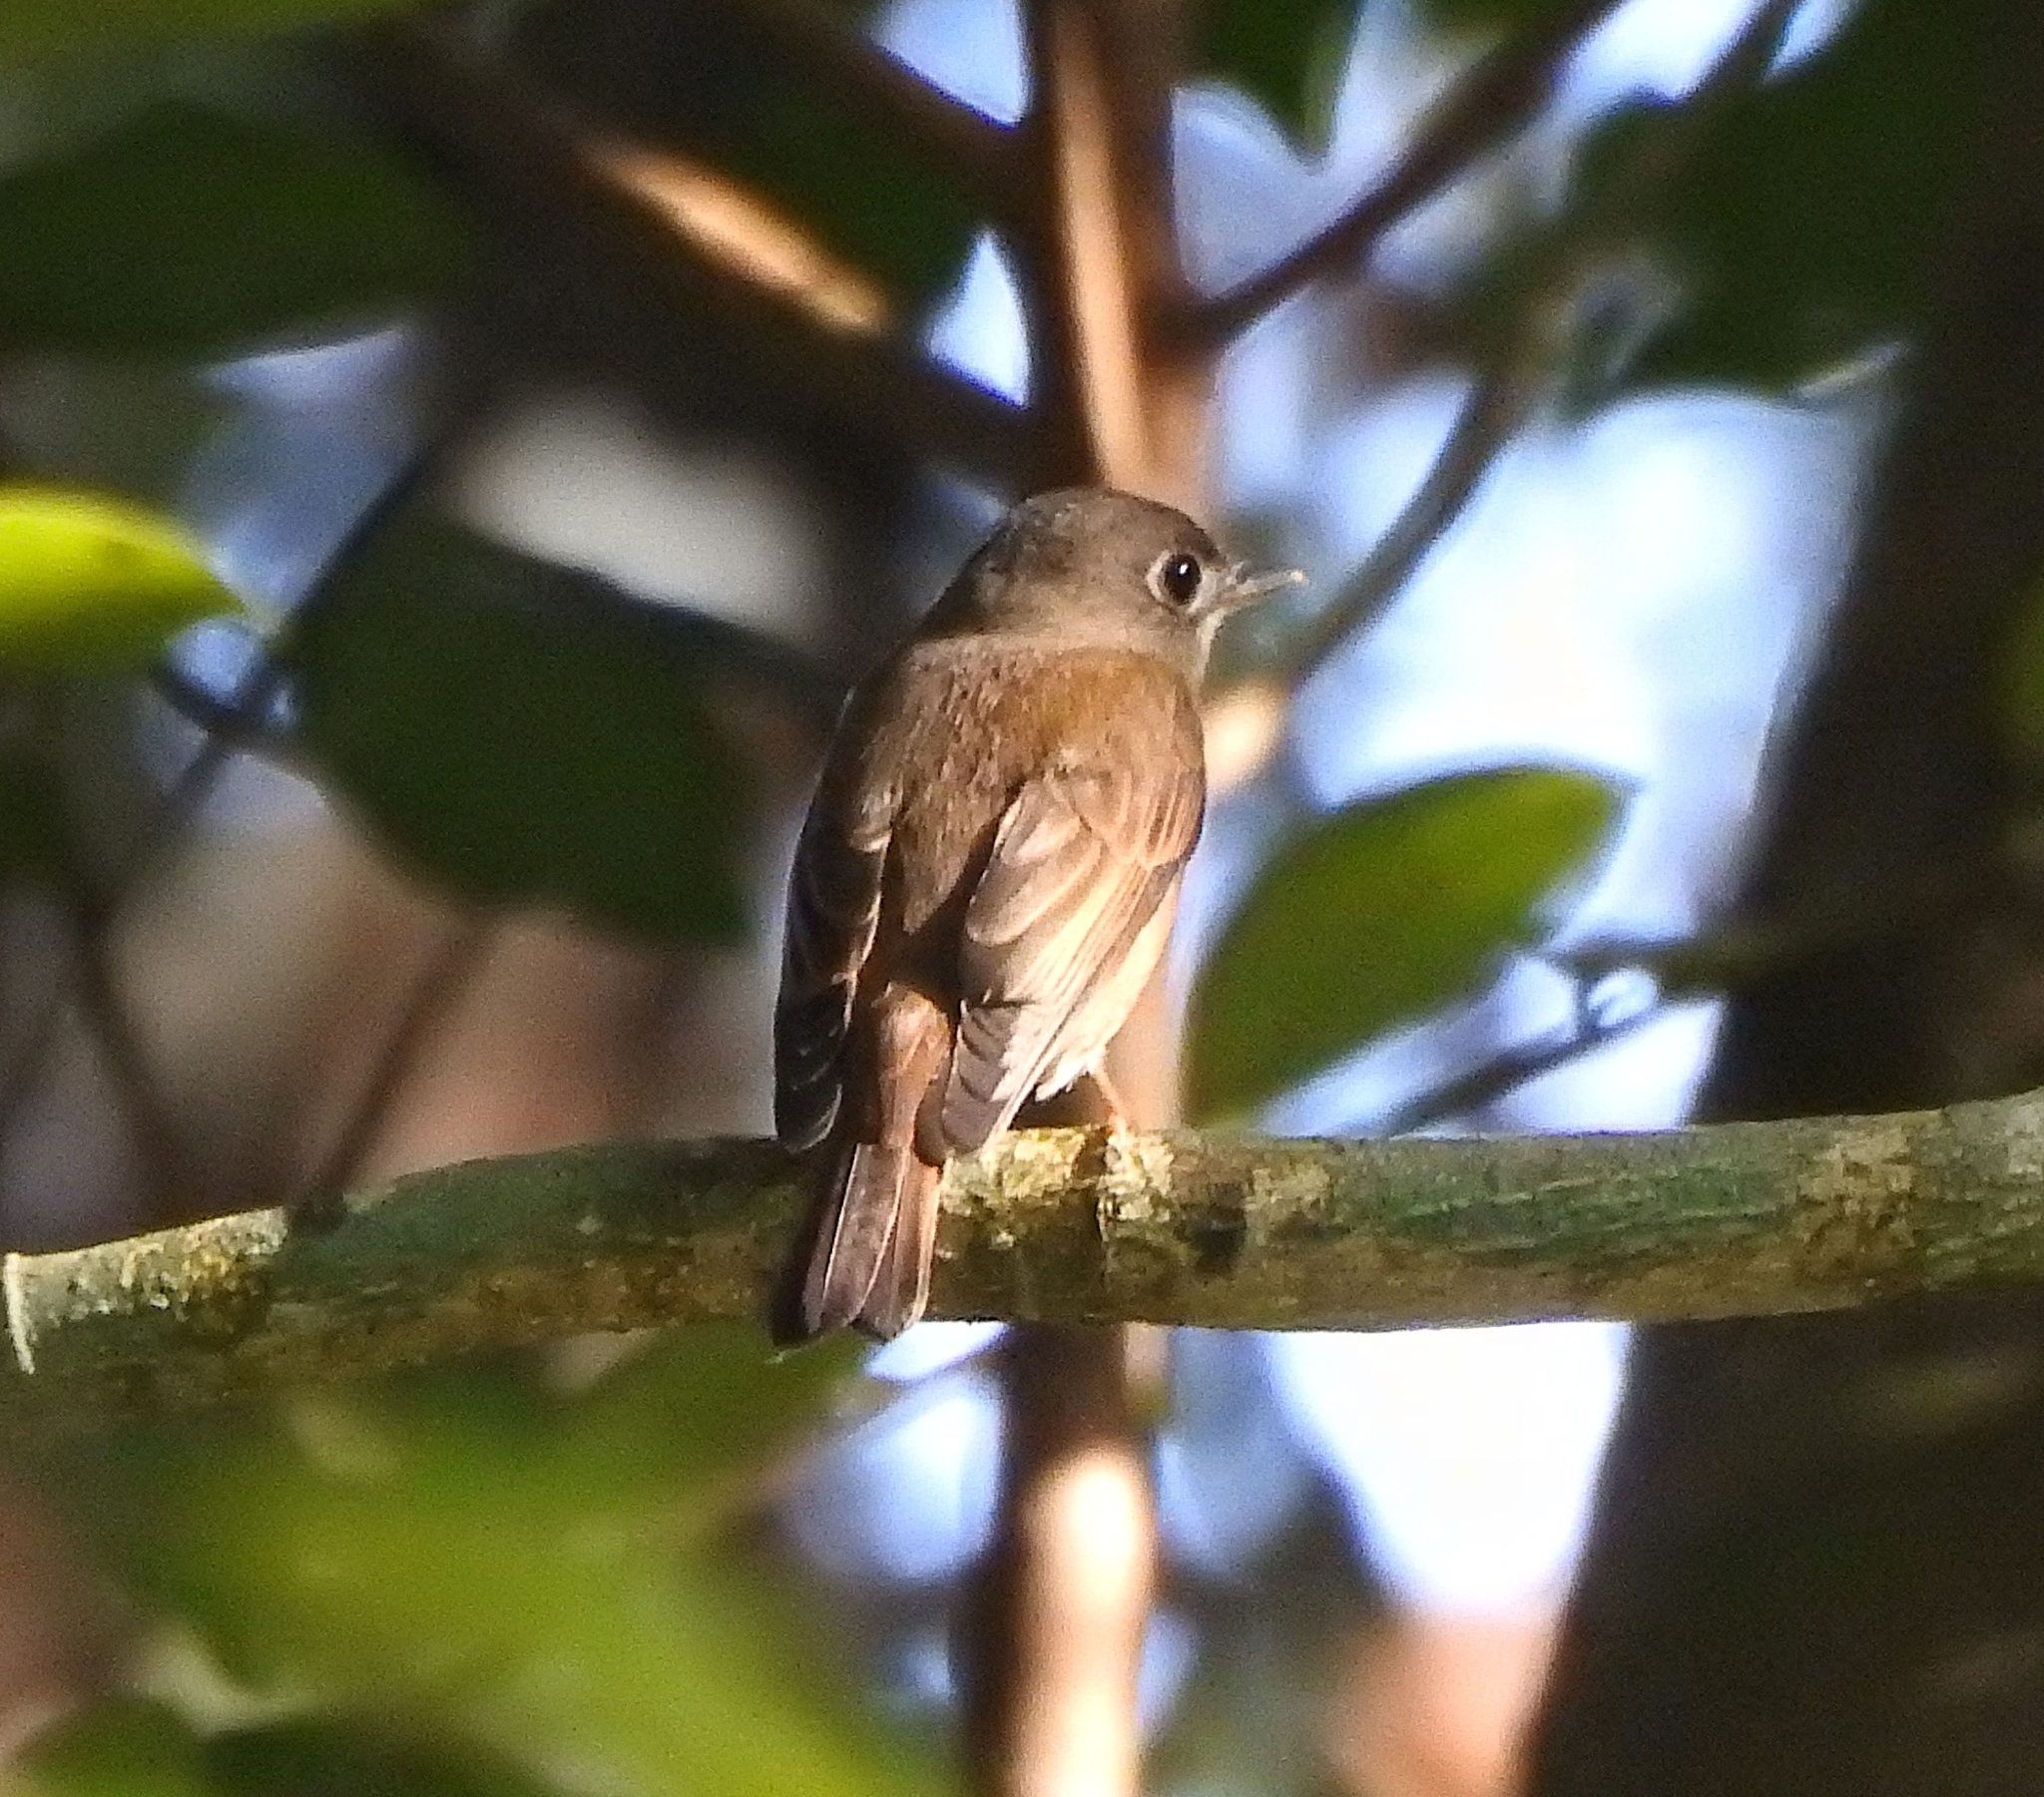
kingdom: Animalia
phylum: Chordata
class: Aves
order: Passeriformes
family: Muscicapidae
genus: Muscicapa
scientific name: Muscicapa muttui
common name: Brown-breasted flycatcher
